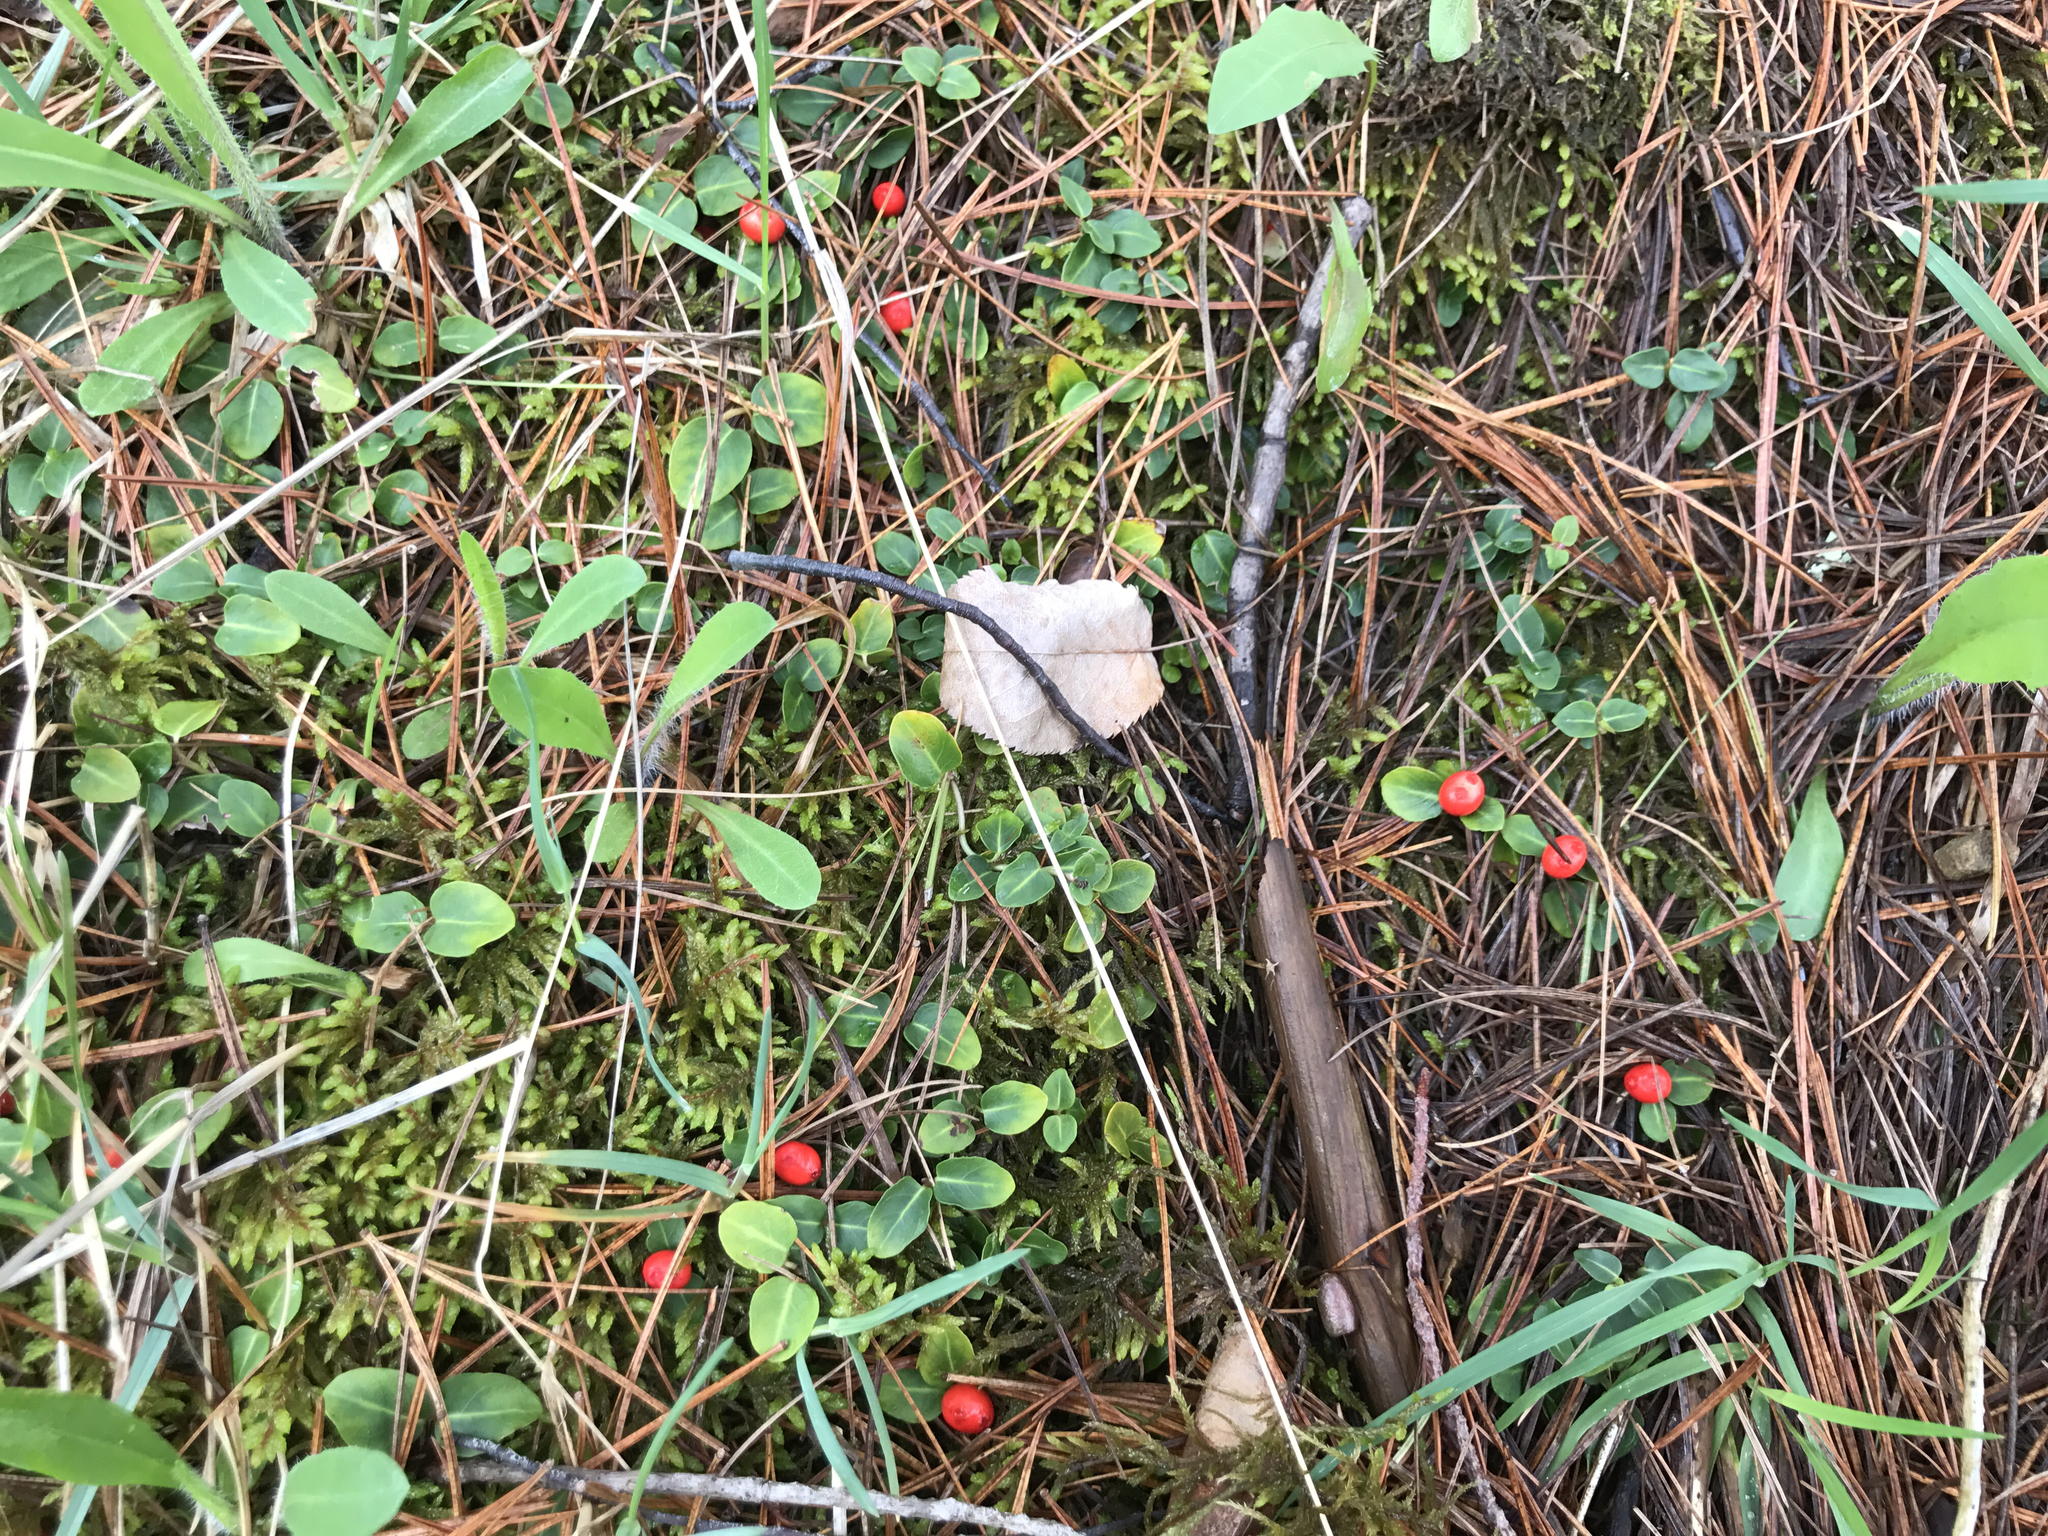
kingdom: Plantae
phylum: Tracheophyta
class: Magnoliopsida
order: Gentianales
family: Rubiaceae
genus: Mitchella
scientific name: Mitchella repens
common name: Partridge-berry
